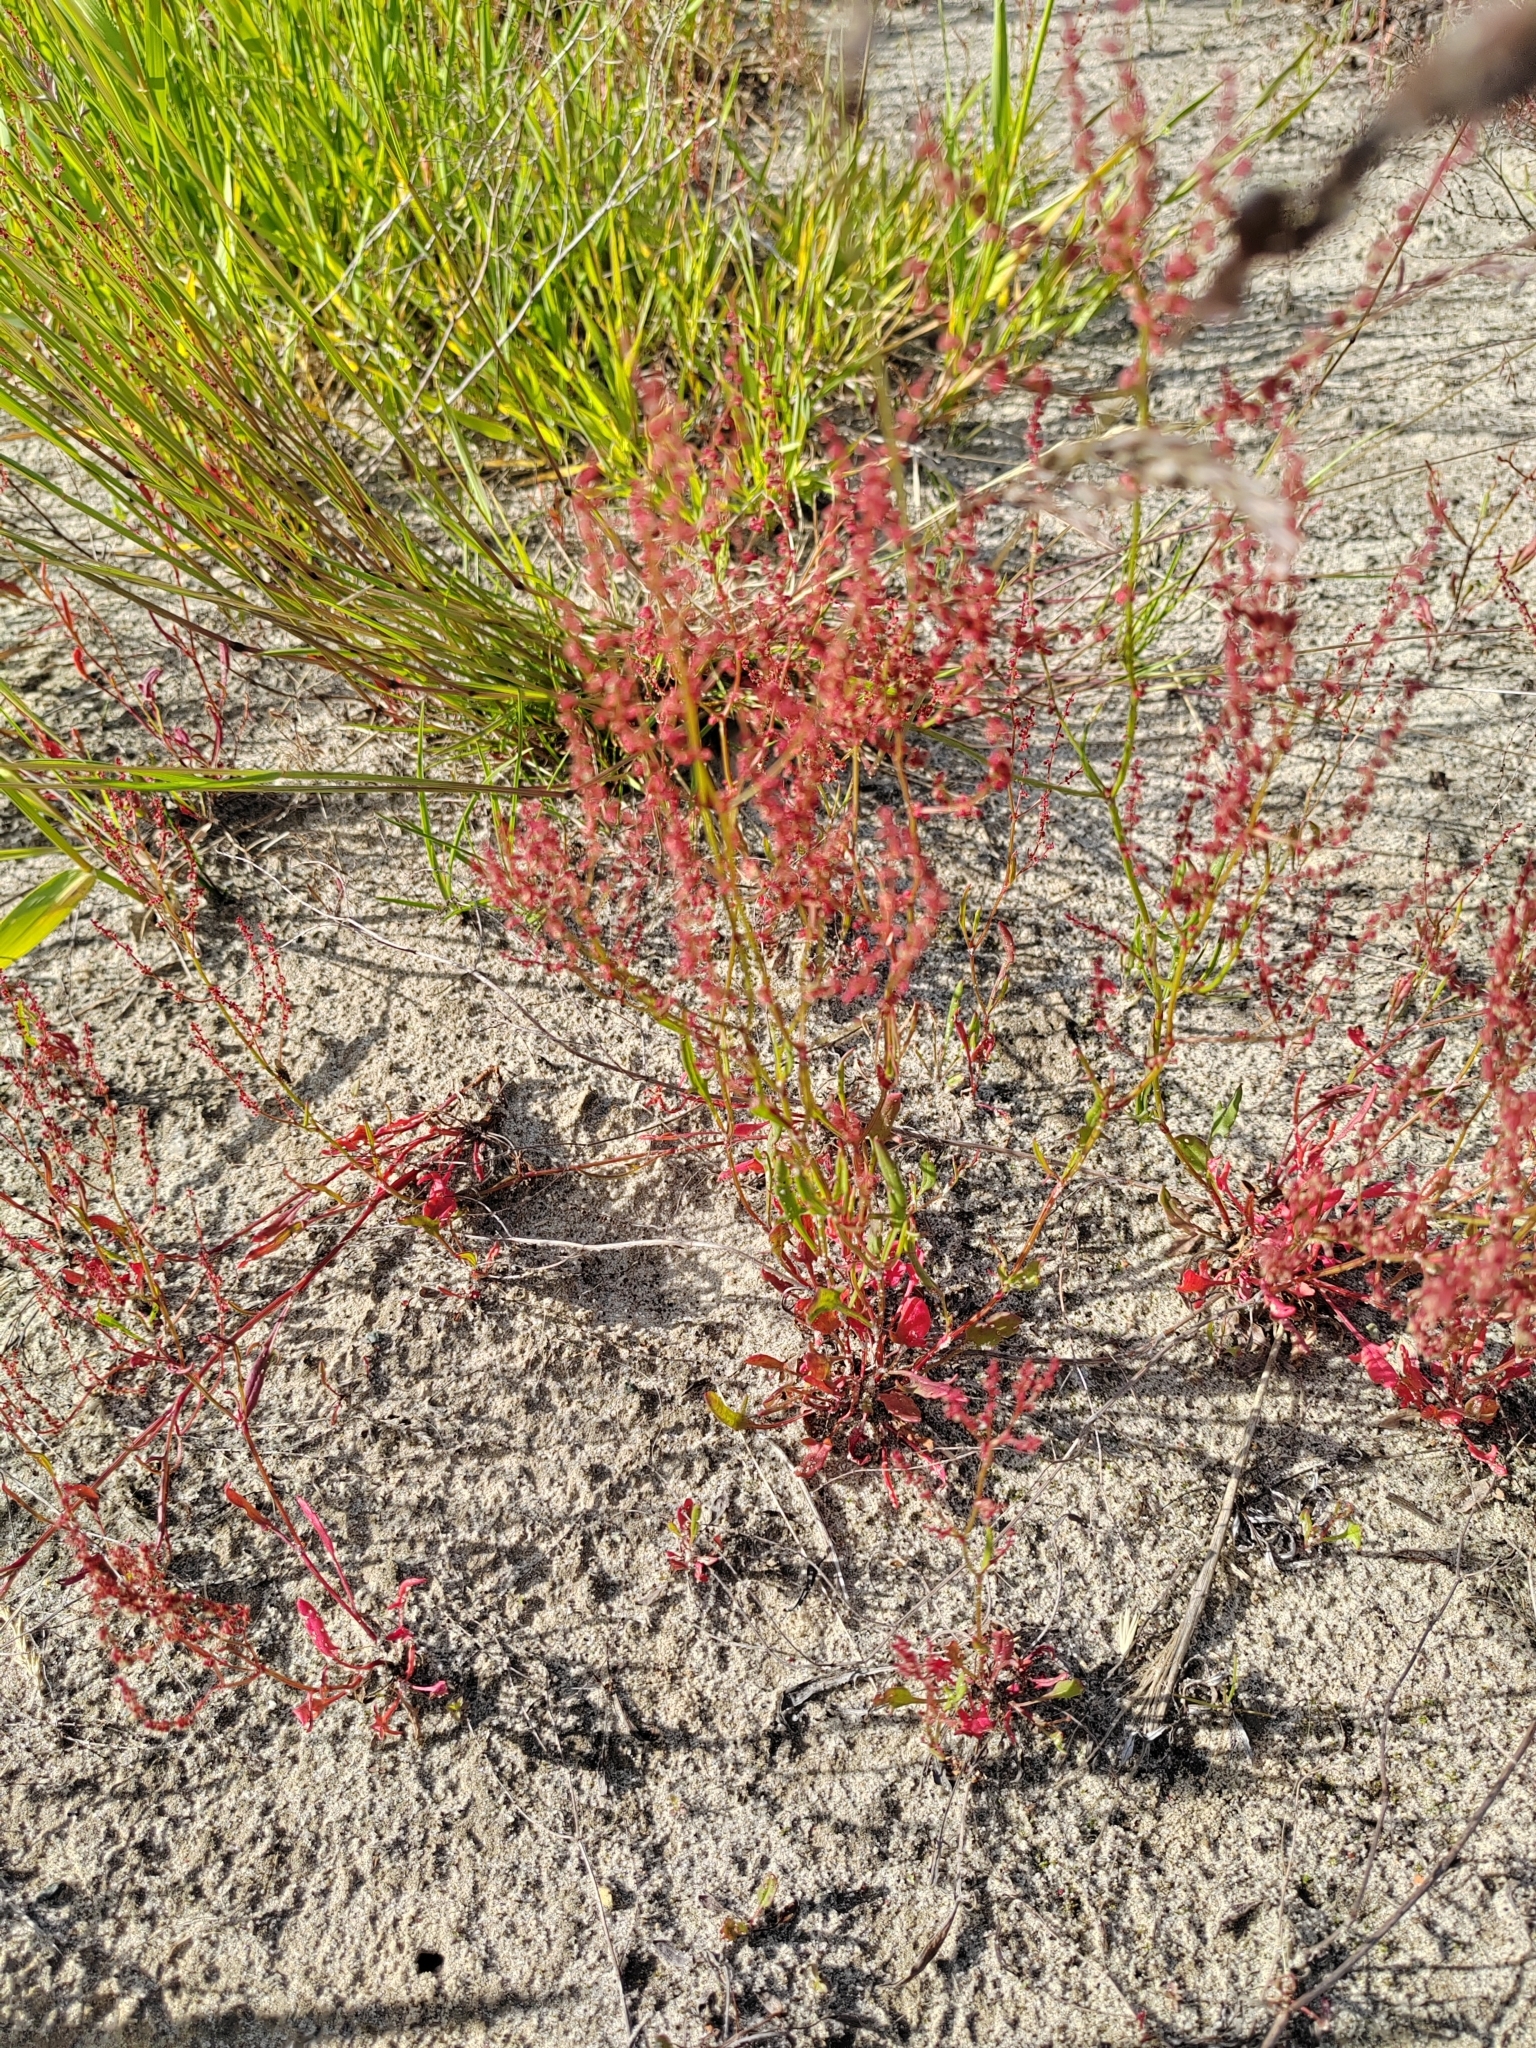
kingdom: Plantae
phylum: Tracheophyta
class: Magnoliopsida
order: Caryophyllales
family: Polygonaceae
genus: Rumex
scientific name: Rumex acetosella
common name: Common sheep sorrel
